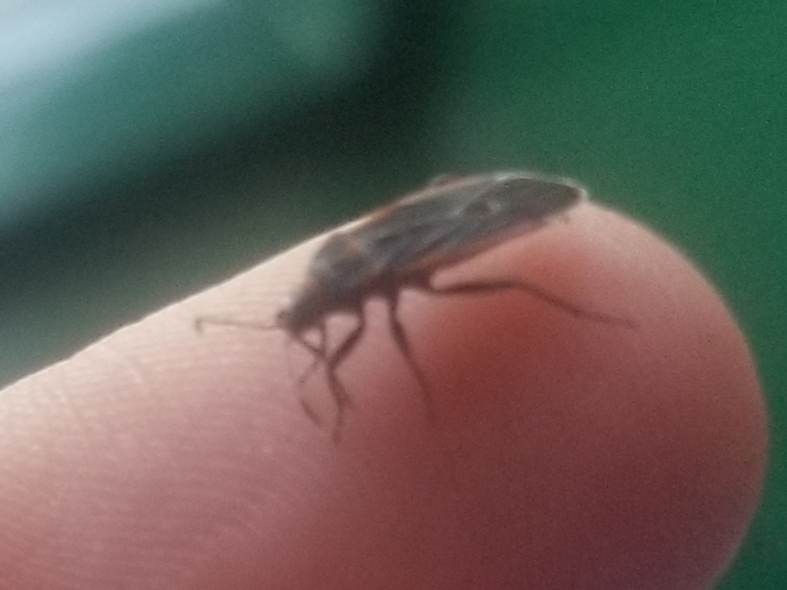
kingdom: Animalia
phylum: Arthropoda
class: Insecta
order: Hemiptera
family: Lygaeidae
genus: Melacoryphus
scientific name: Melacoryphus lateralis
